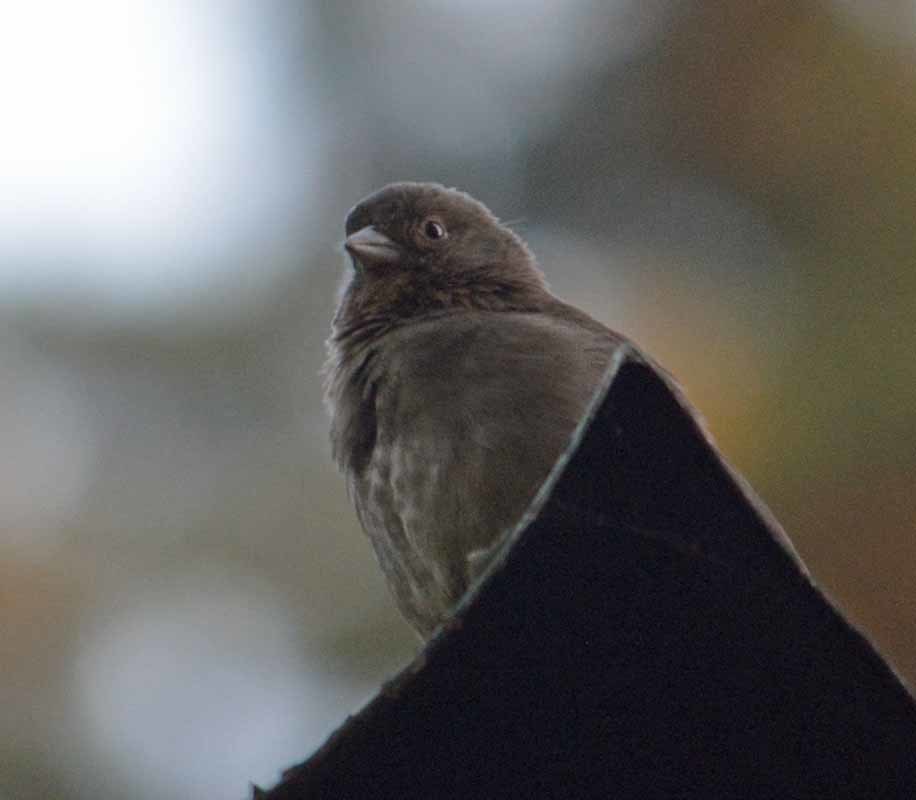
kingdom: Animalia
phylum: Chordata
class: Aves
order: Passeriformes
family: Passerellidae
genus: Melozone
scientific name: Melozone fusca
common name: Canyon towhee
